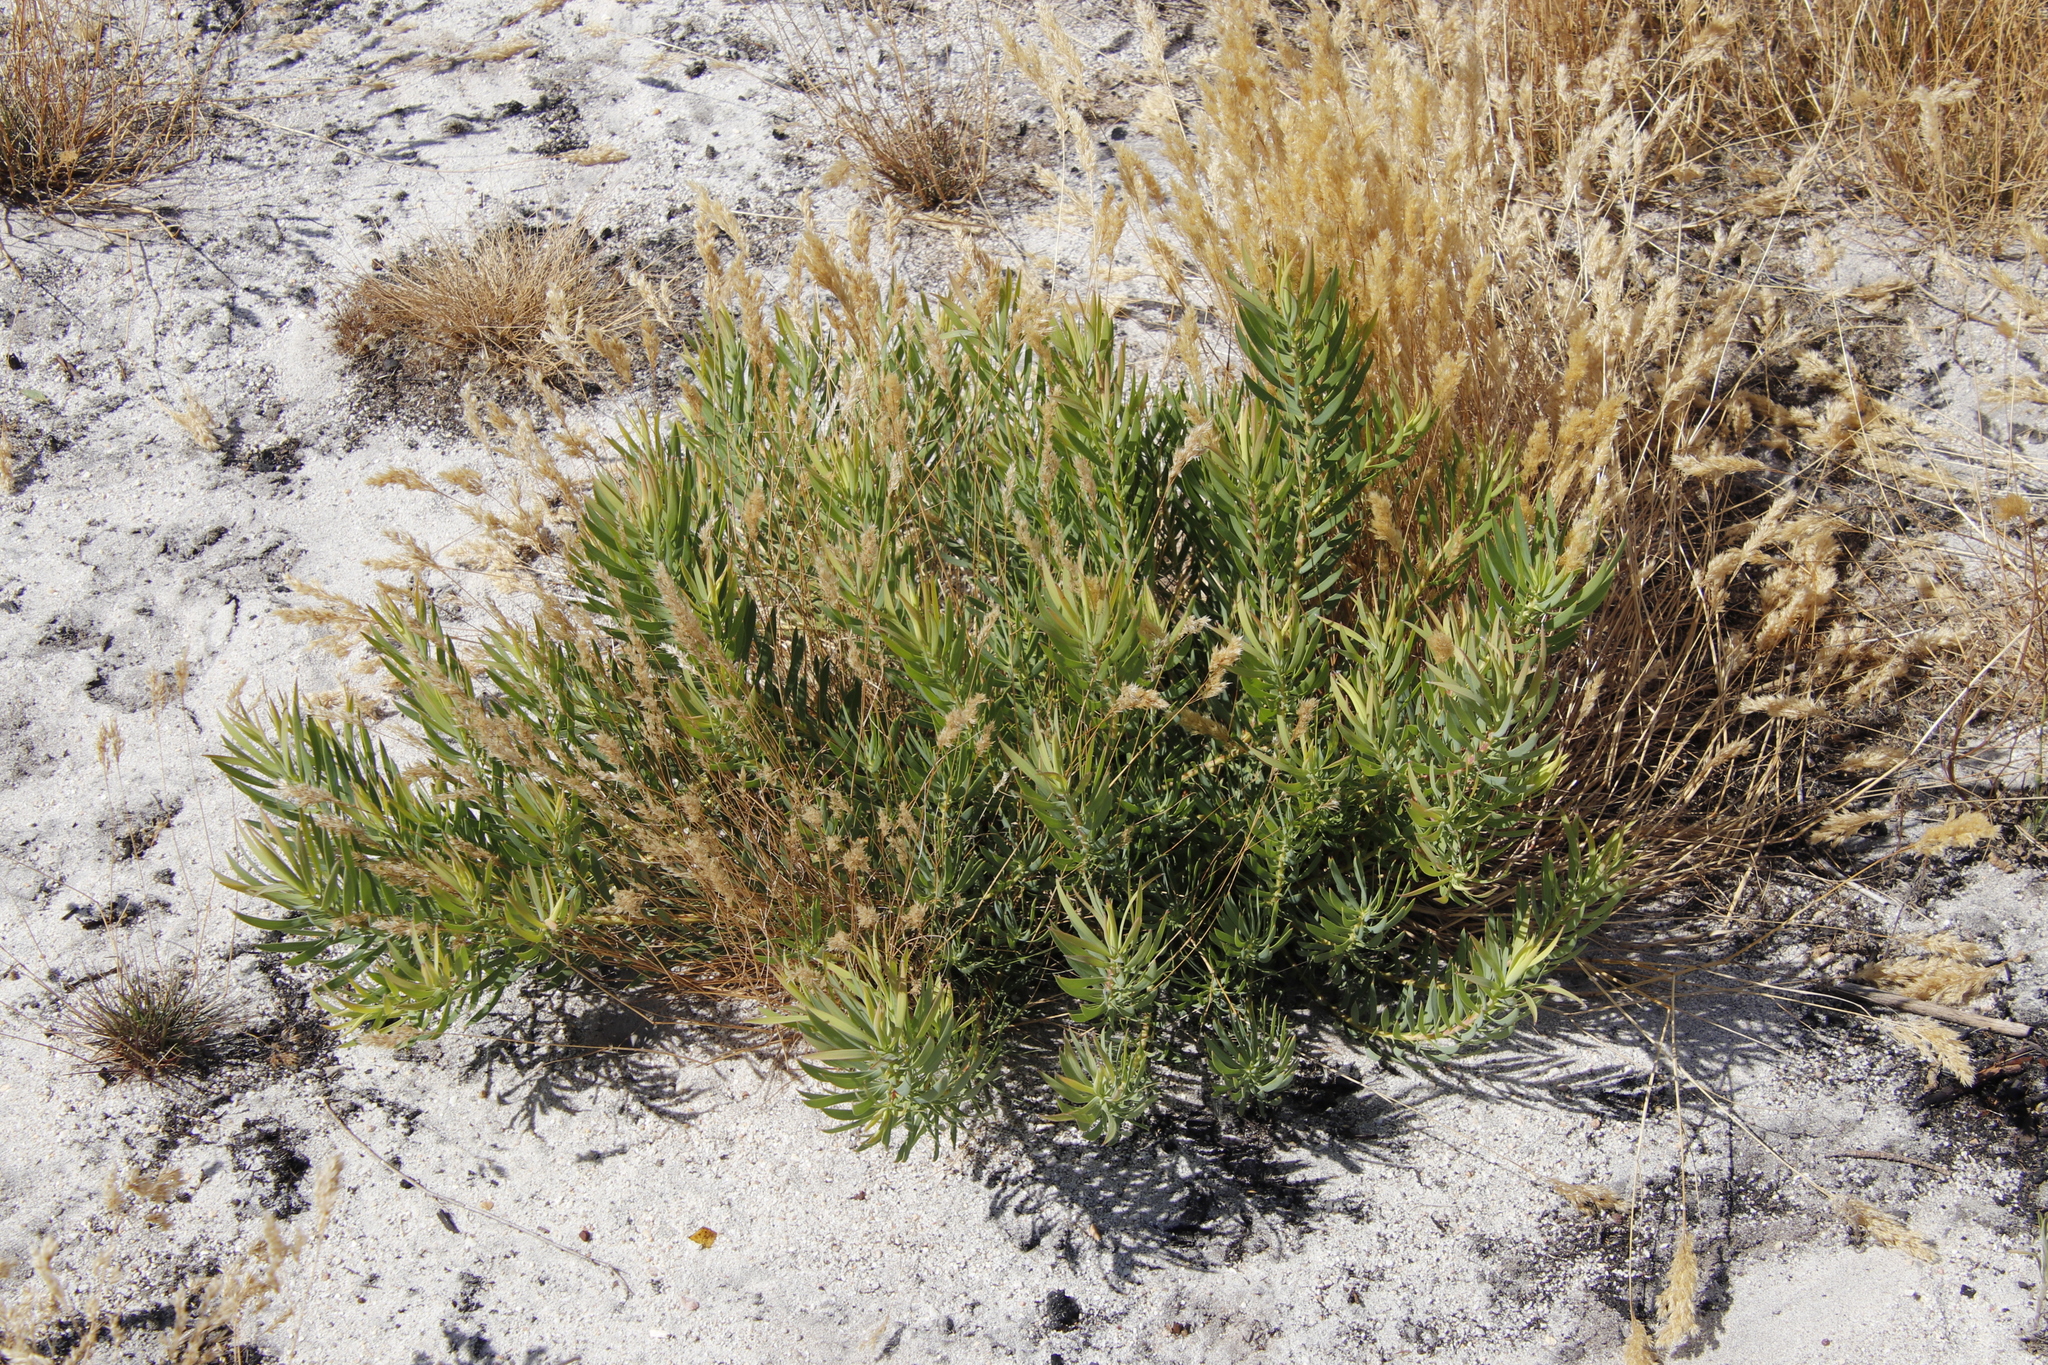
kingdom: Plantae
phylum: Tracheophyta
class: Magnoliopsida
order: Proteales
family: Proteaceae
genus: Leucadendron
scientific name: Leucadendron salignum
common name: Common sunshine conebush
